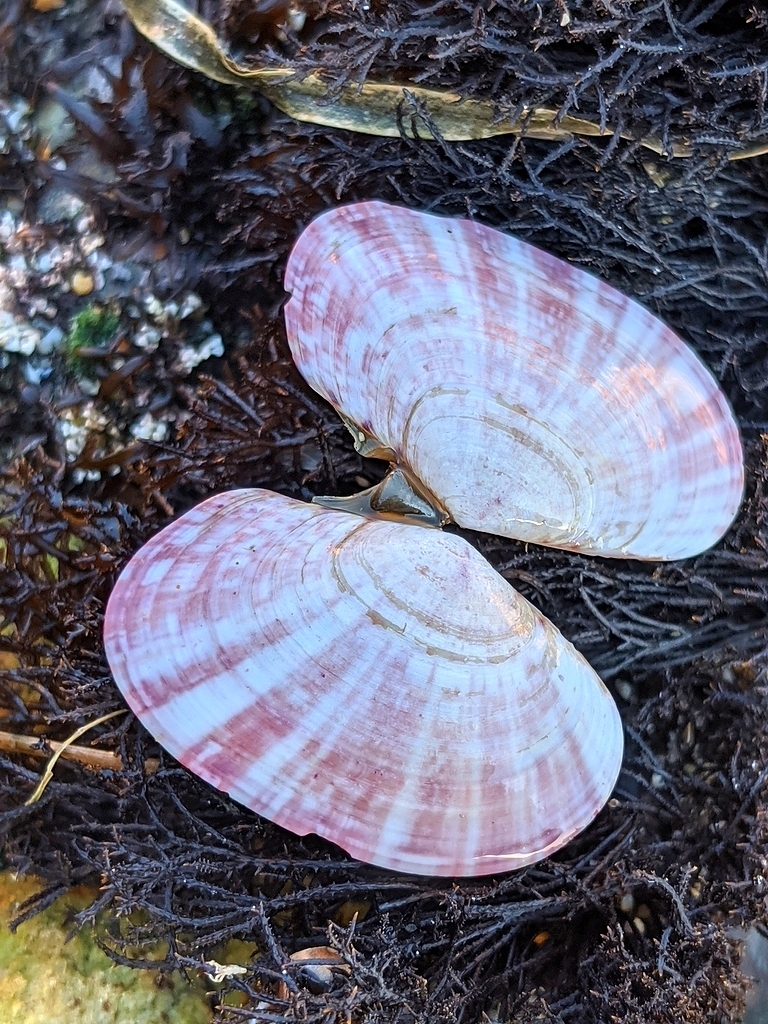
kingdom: Animalia
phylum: Mollusca
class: Bivalvia
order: Cardiida
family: Psammobiidae
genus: Gari
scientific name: Gari californica
